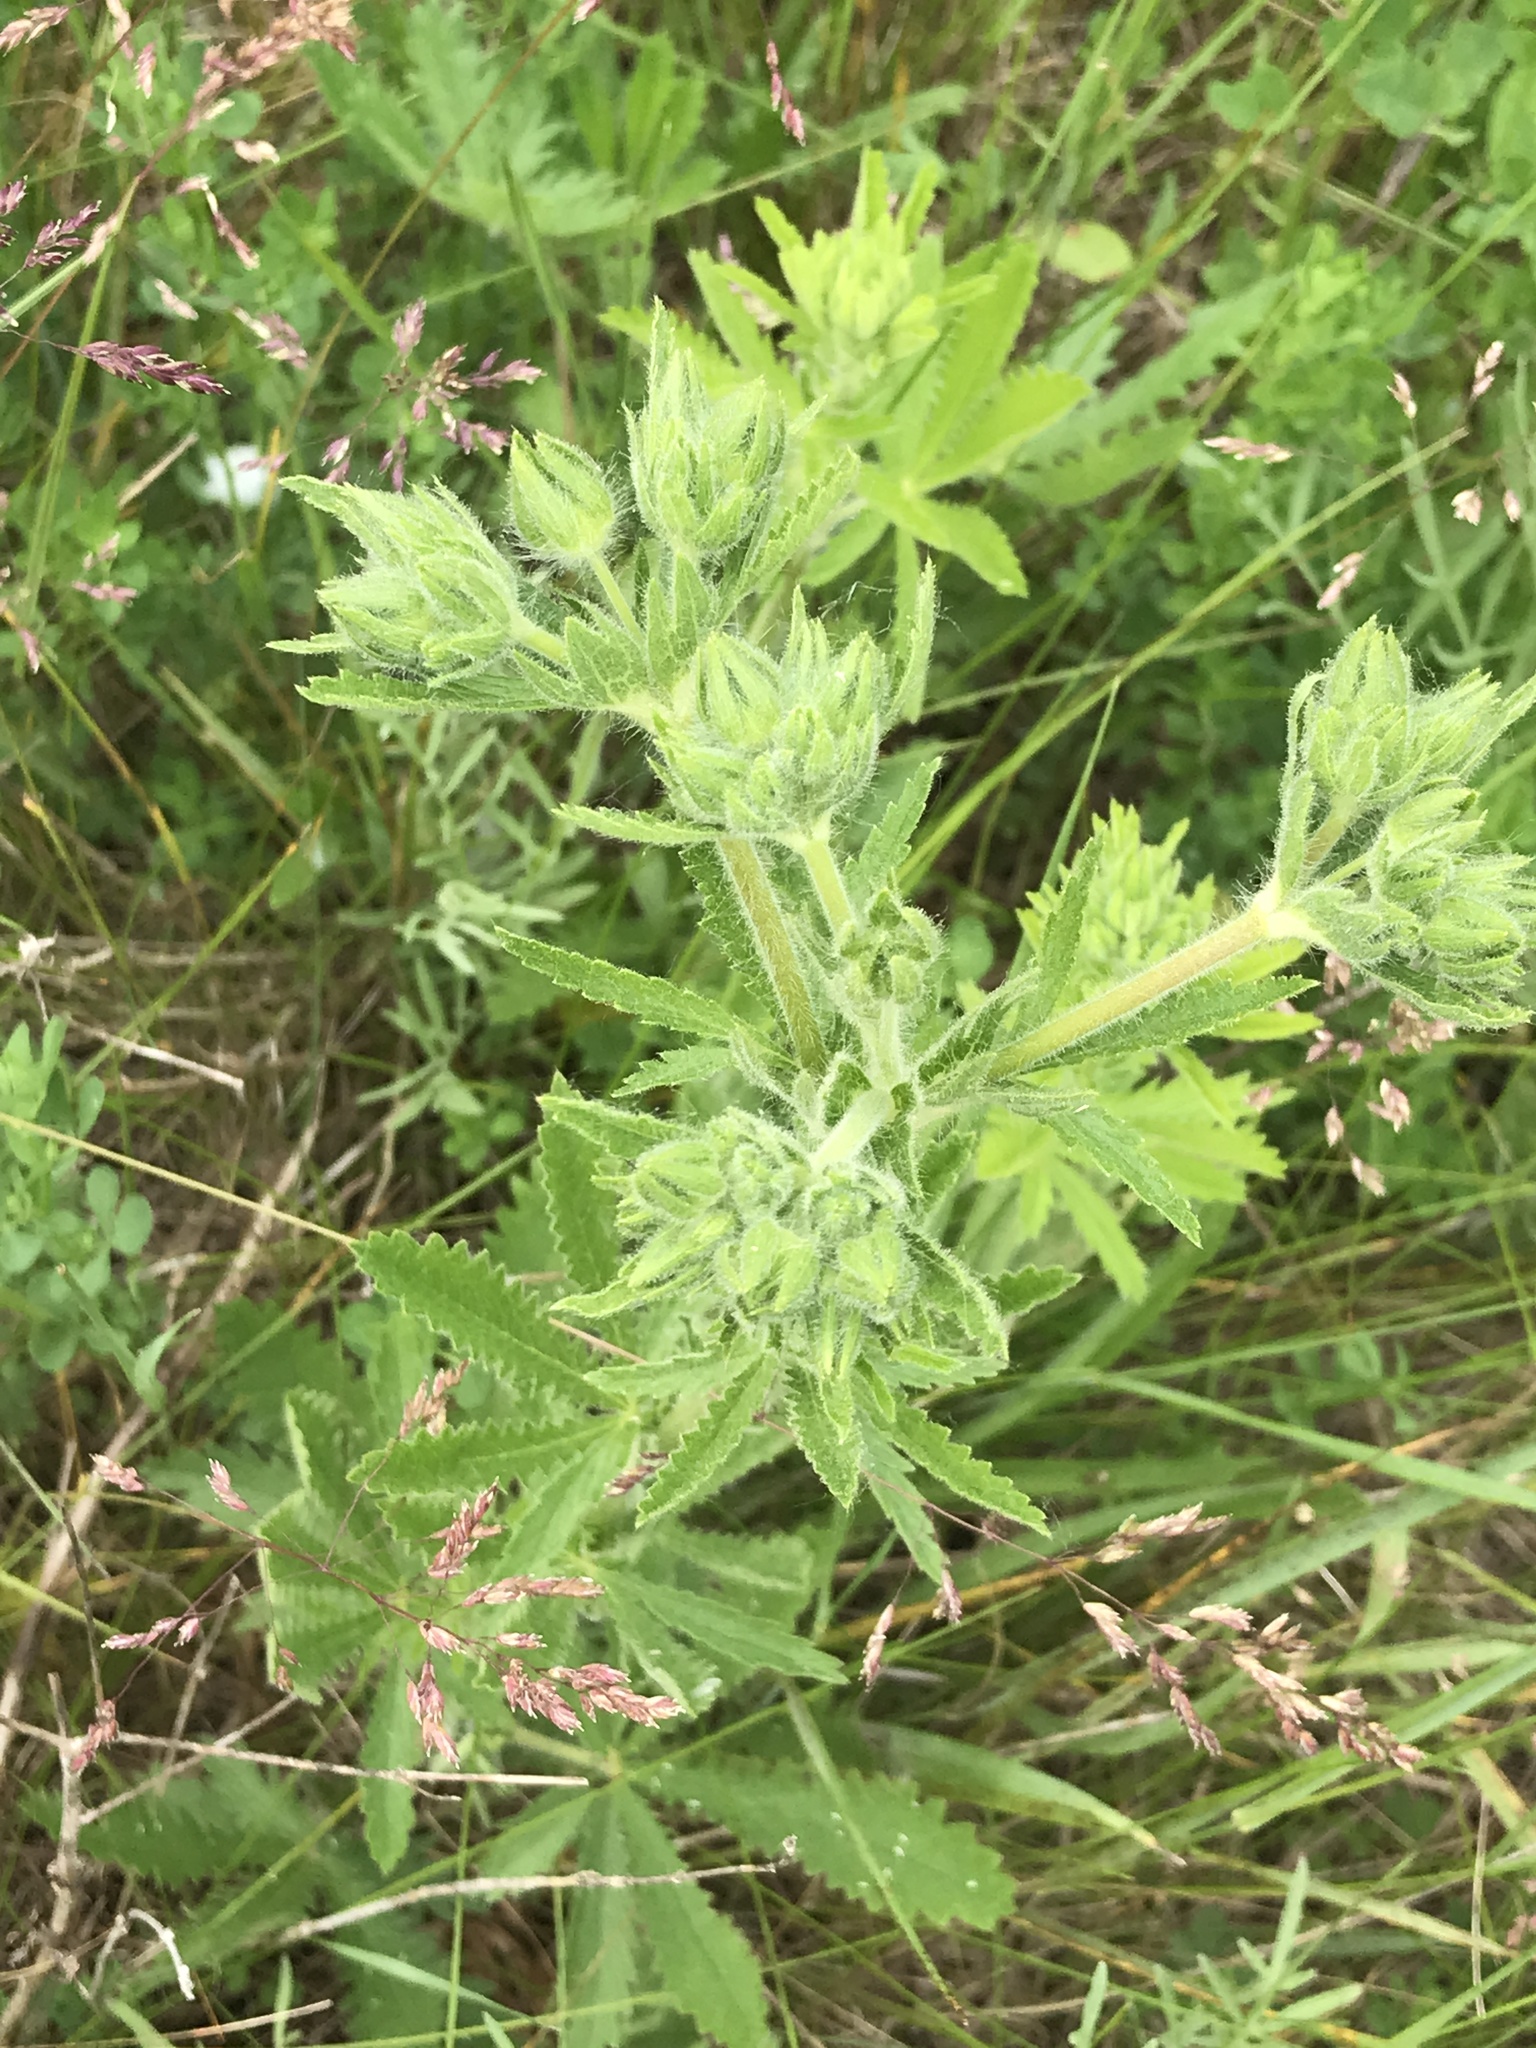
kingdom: Plantae
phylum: Tracheophyta
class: Magnoliopsida
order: Rosales
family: Rosaceae
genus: Potentilla
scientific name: Potentilla recta
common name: Sulphur cinquefoil
